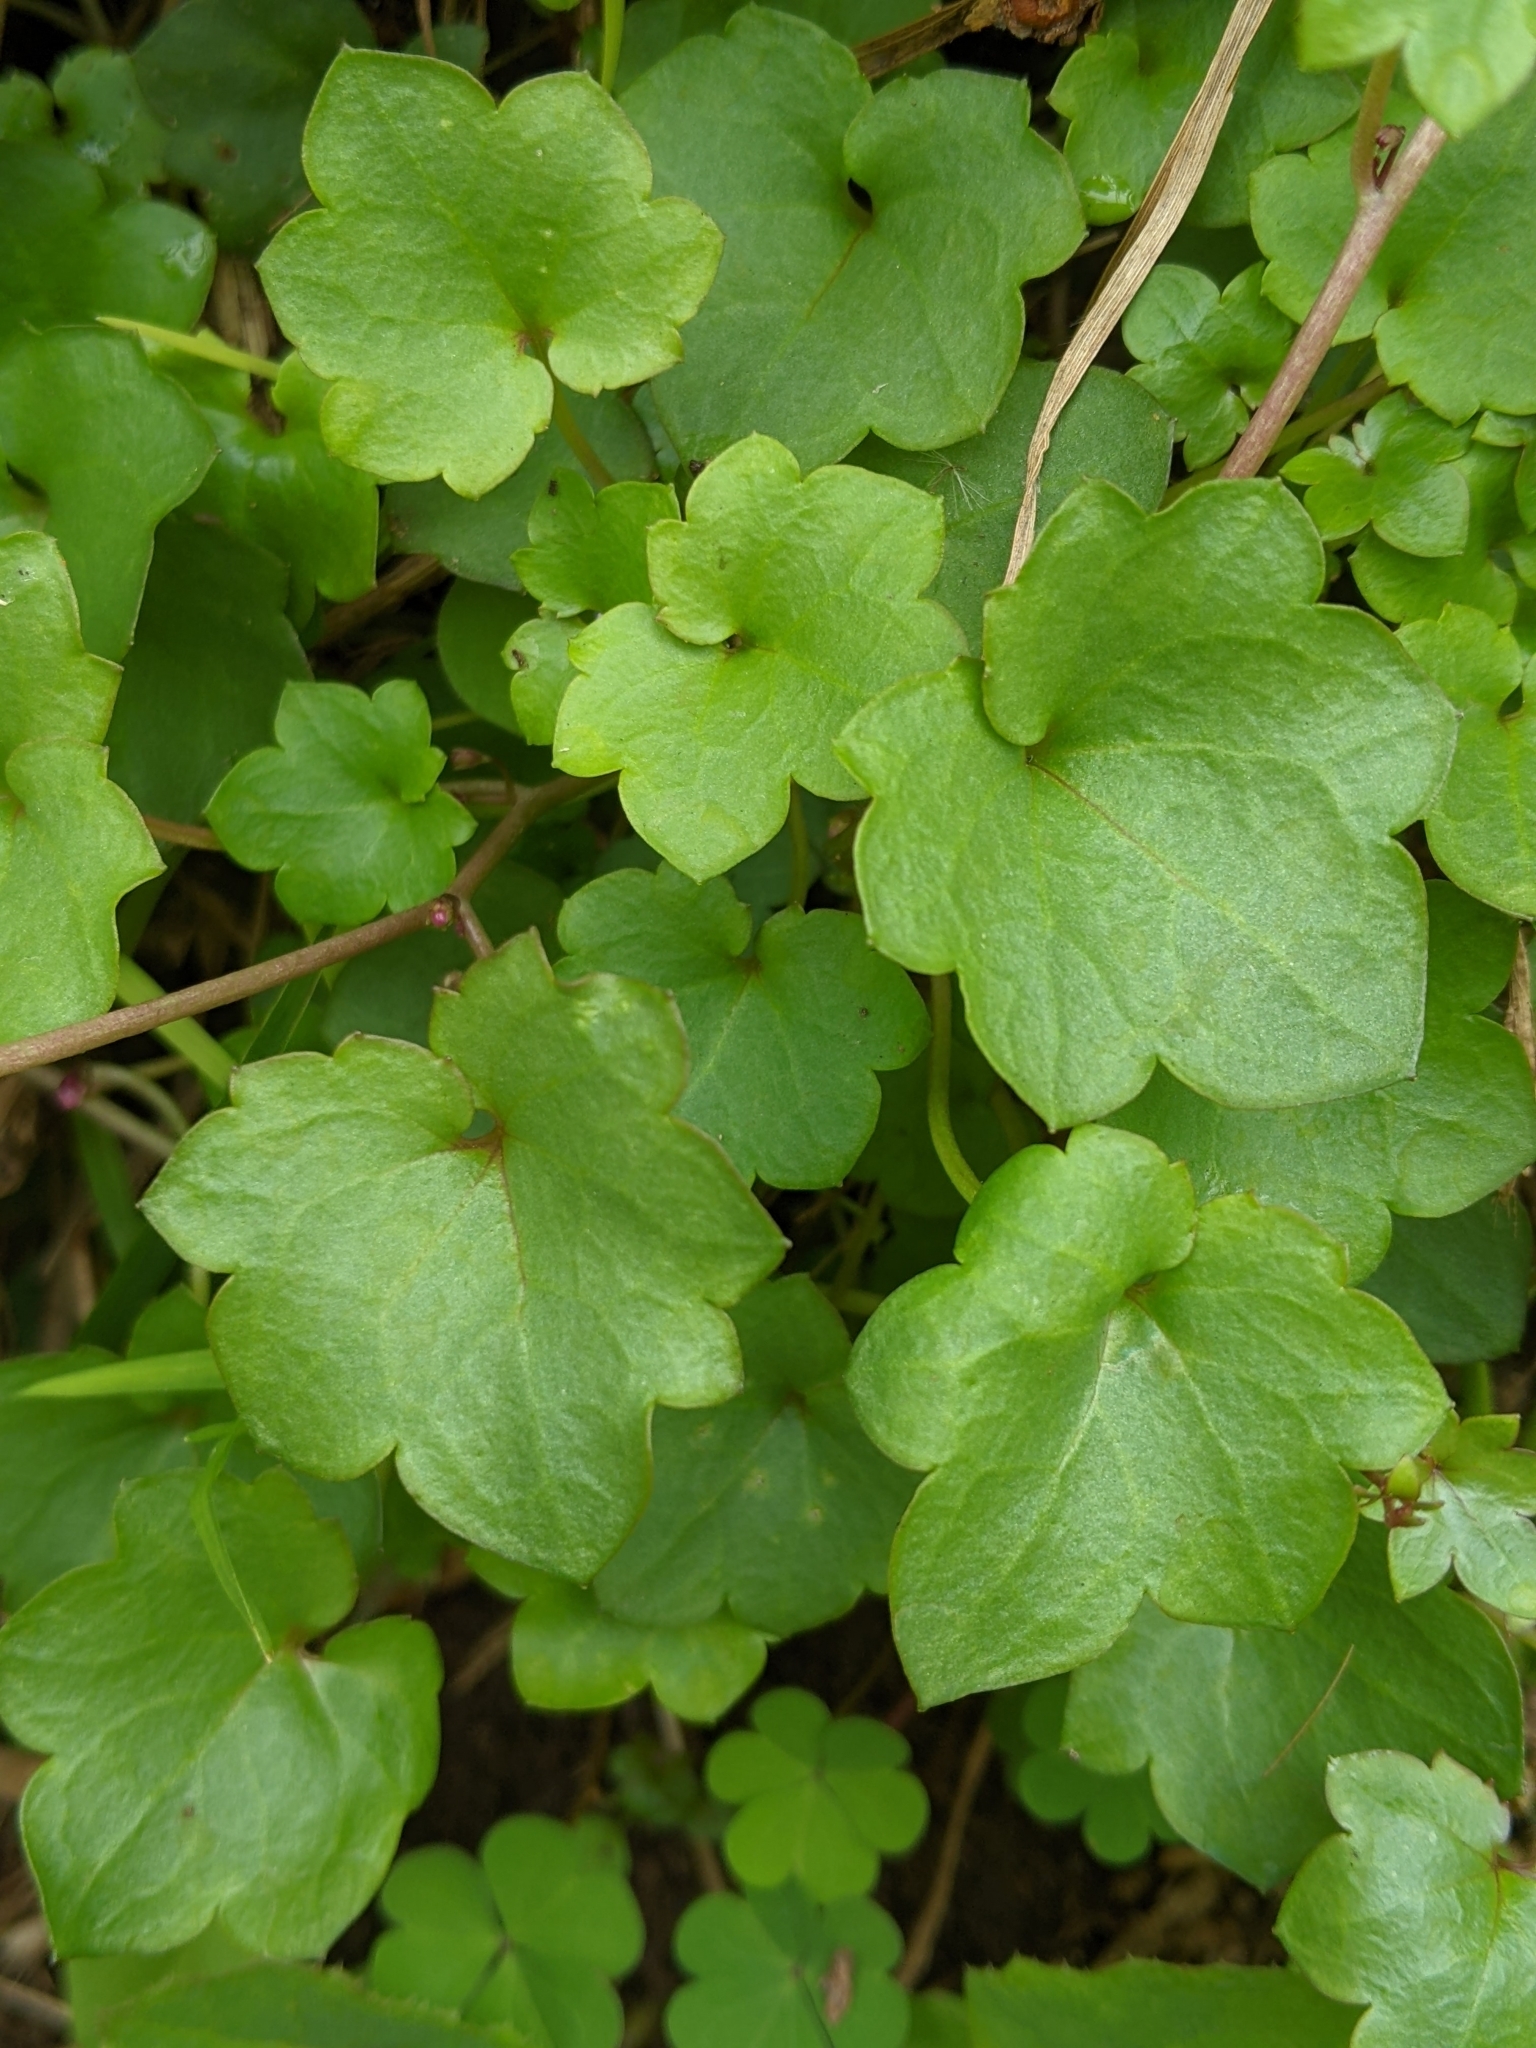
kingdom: Plantae
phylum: Tracheophyta
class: Magnoliopsida
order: Lamiales
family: Plantaginaceae
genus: Cymbalaria
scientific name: Cymbalaria muralis
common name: Ivy-leaved toadflax
